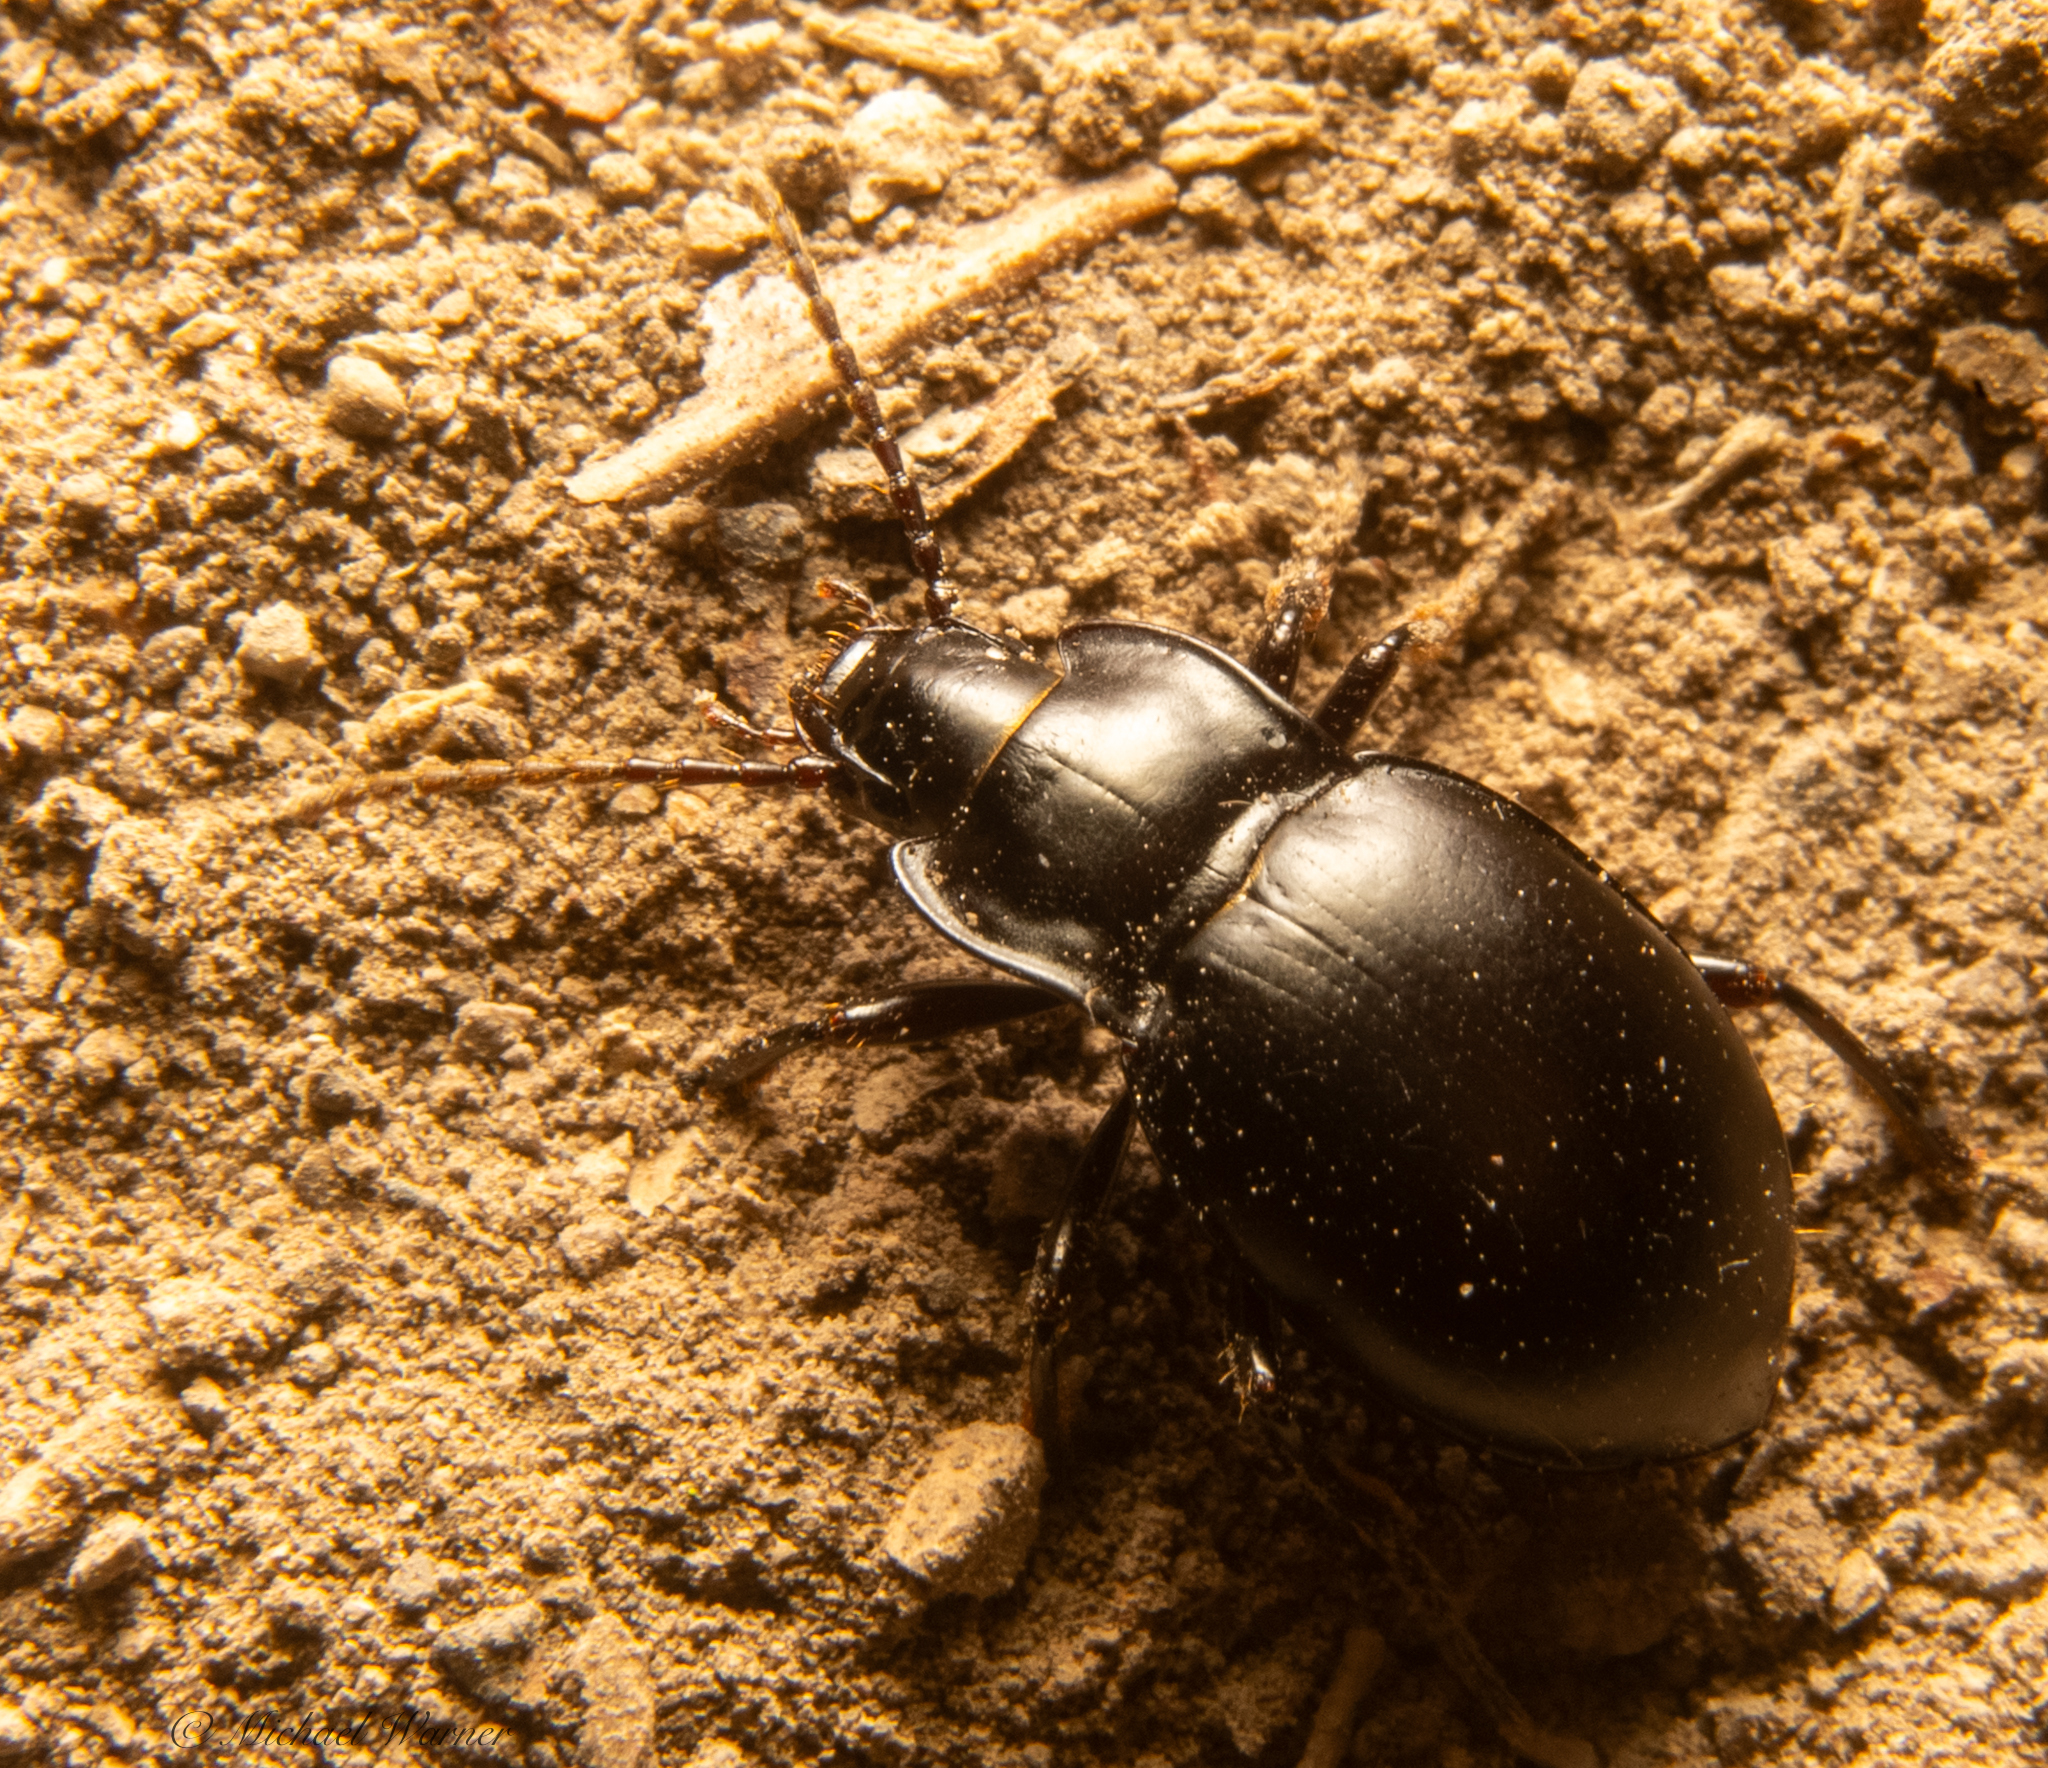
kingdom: Animalia
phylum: Arthropoda
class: Insecta
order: Coleoptera
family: Carabidae
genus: Metrius
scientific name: Metrius contractus
